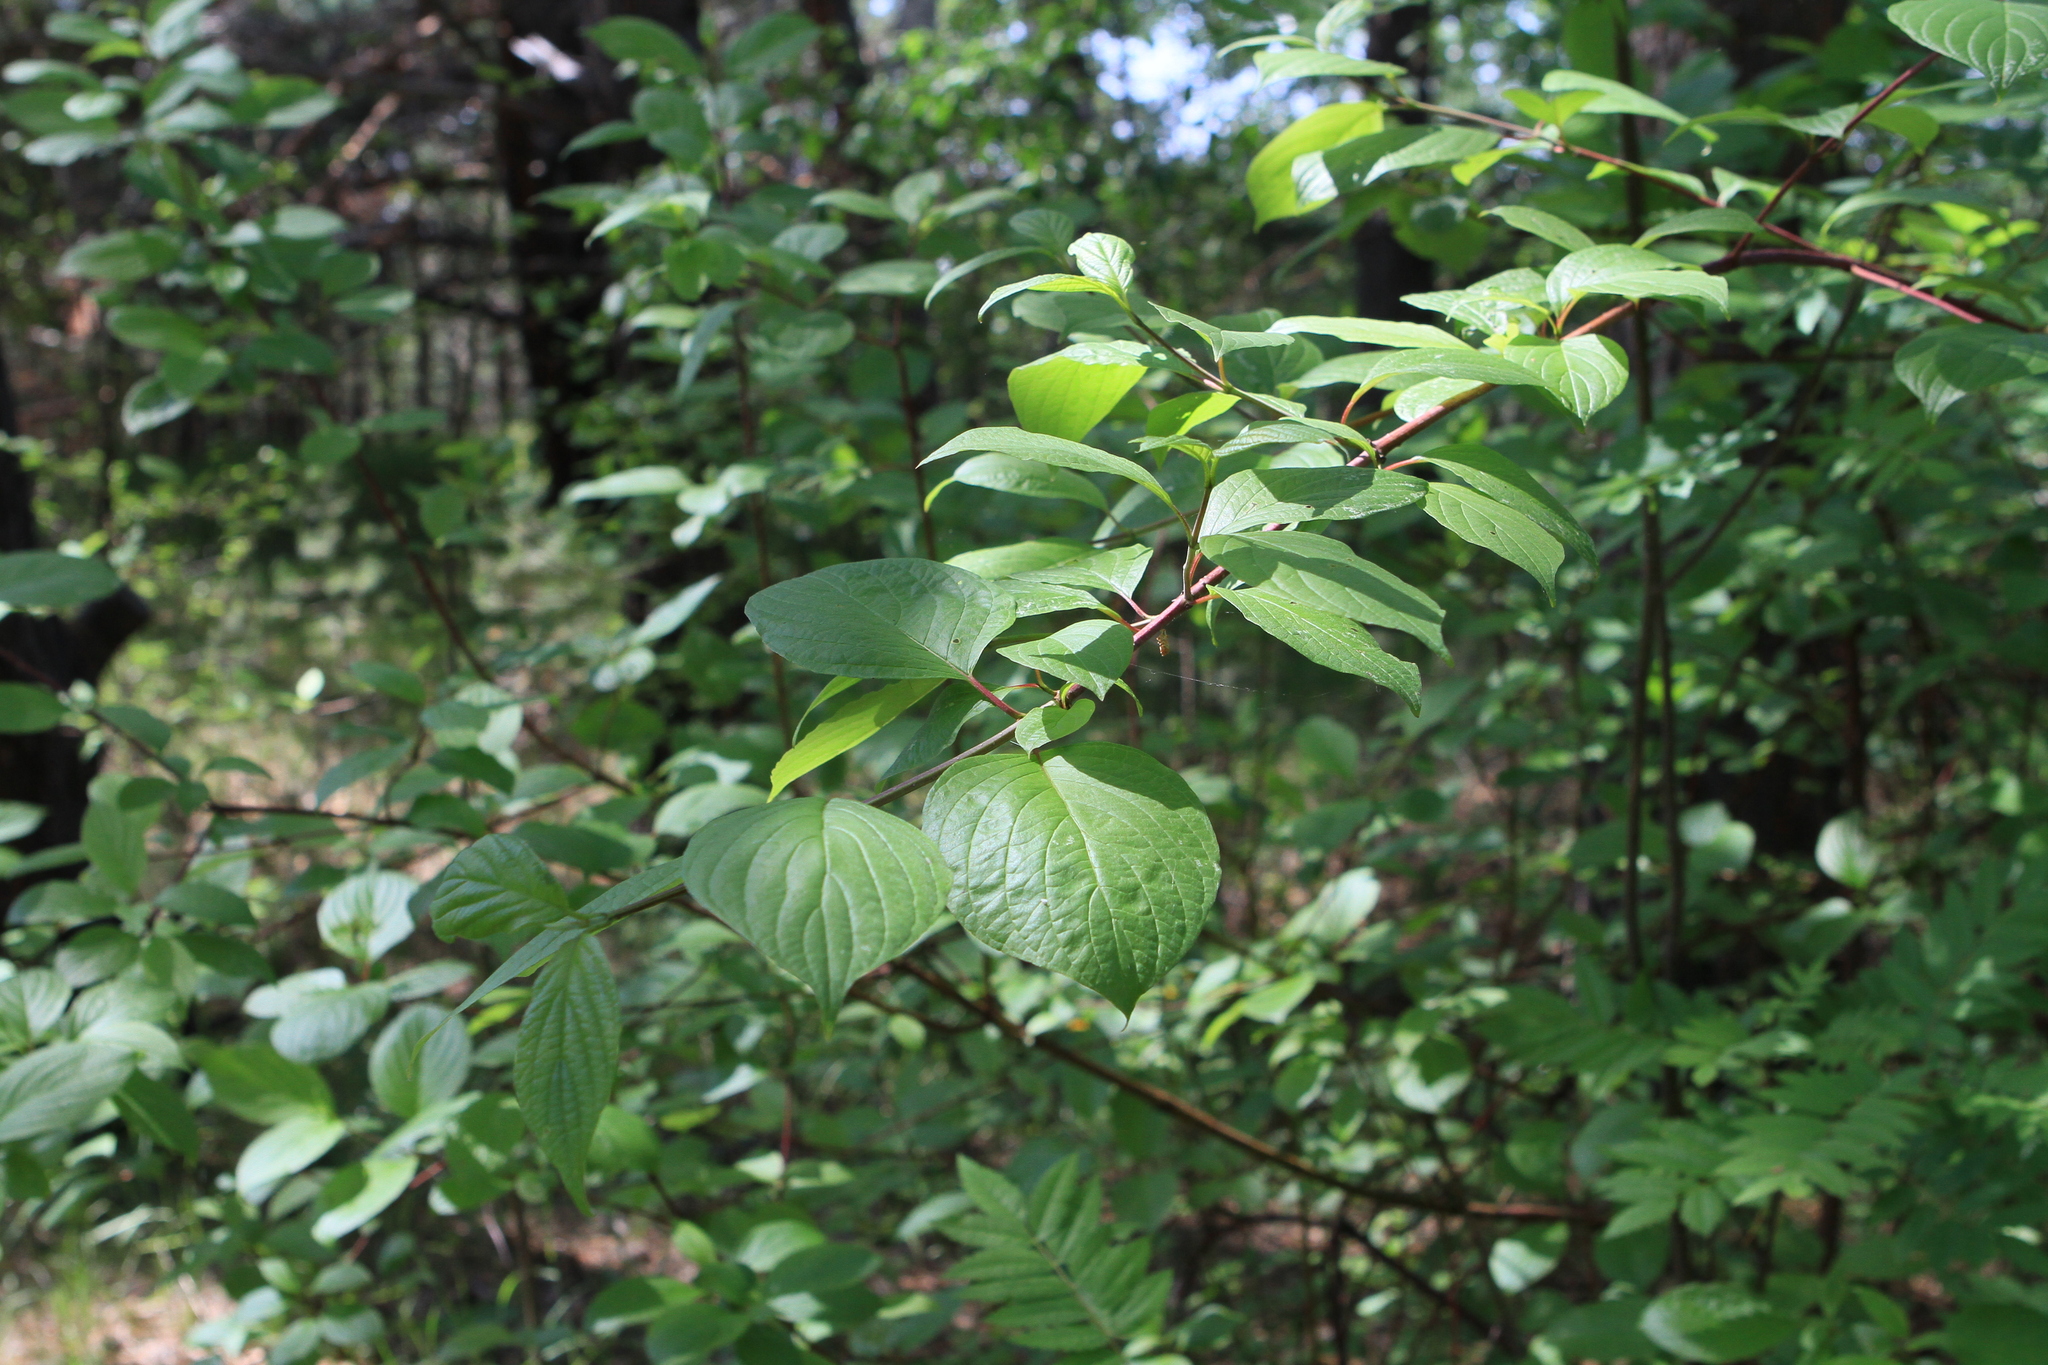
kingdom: Plantae
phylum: Tracheophyta
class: Magnoliopsida
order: Cornales
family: Cornaceae
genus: Cornus
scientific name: Cornus alba
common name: White dogwood
